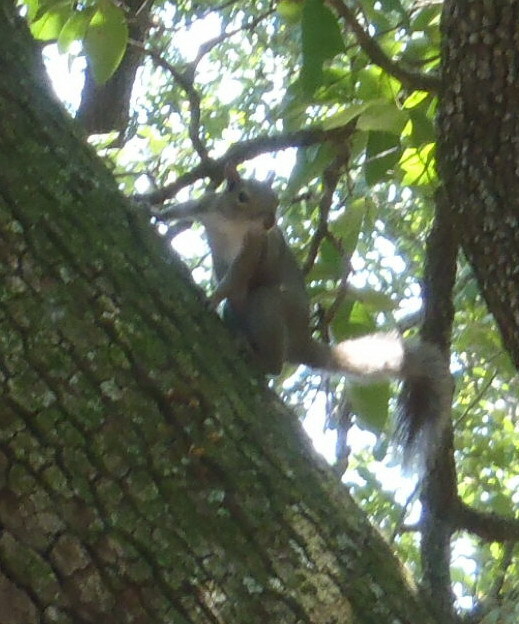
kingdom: Animalia
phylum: Chordata
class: Mammalia
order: Rodentia
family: Sciuridae
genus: Sciurus
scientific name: Sciurus carolinensis
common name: Eastern gray squirrel
